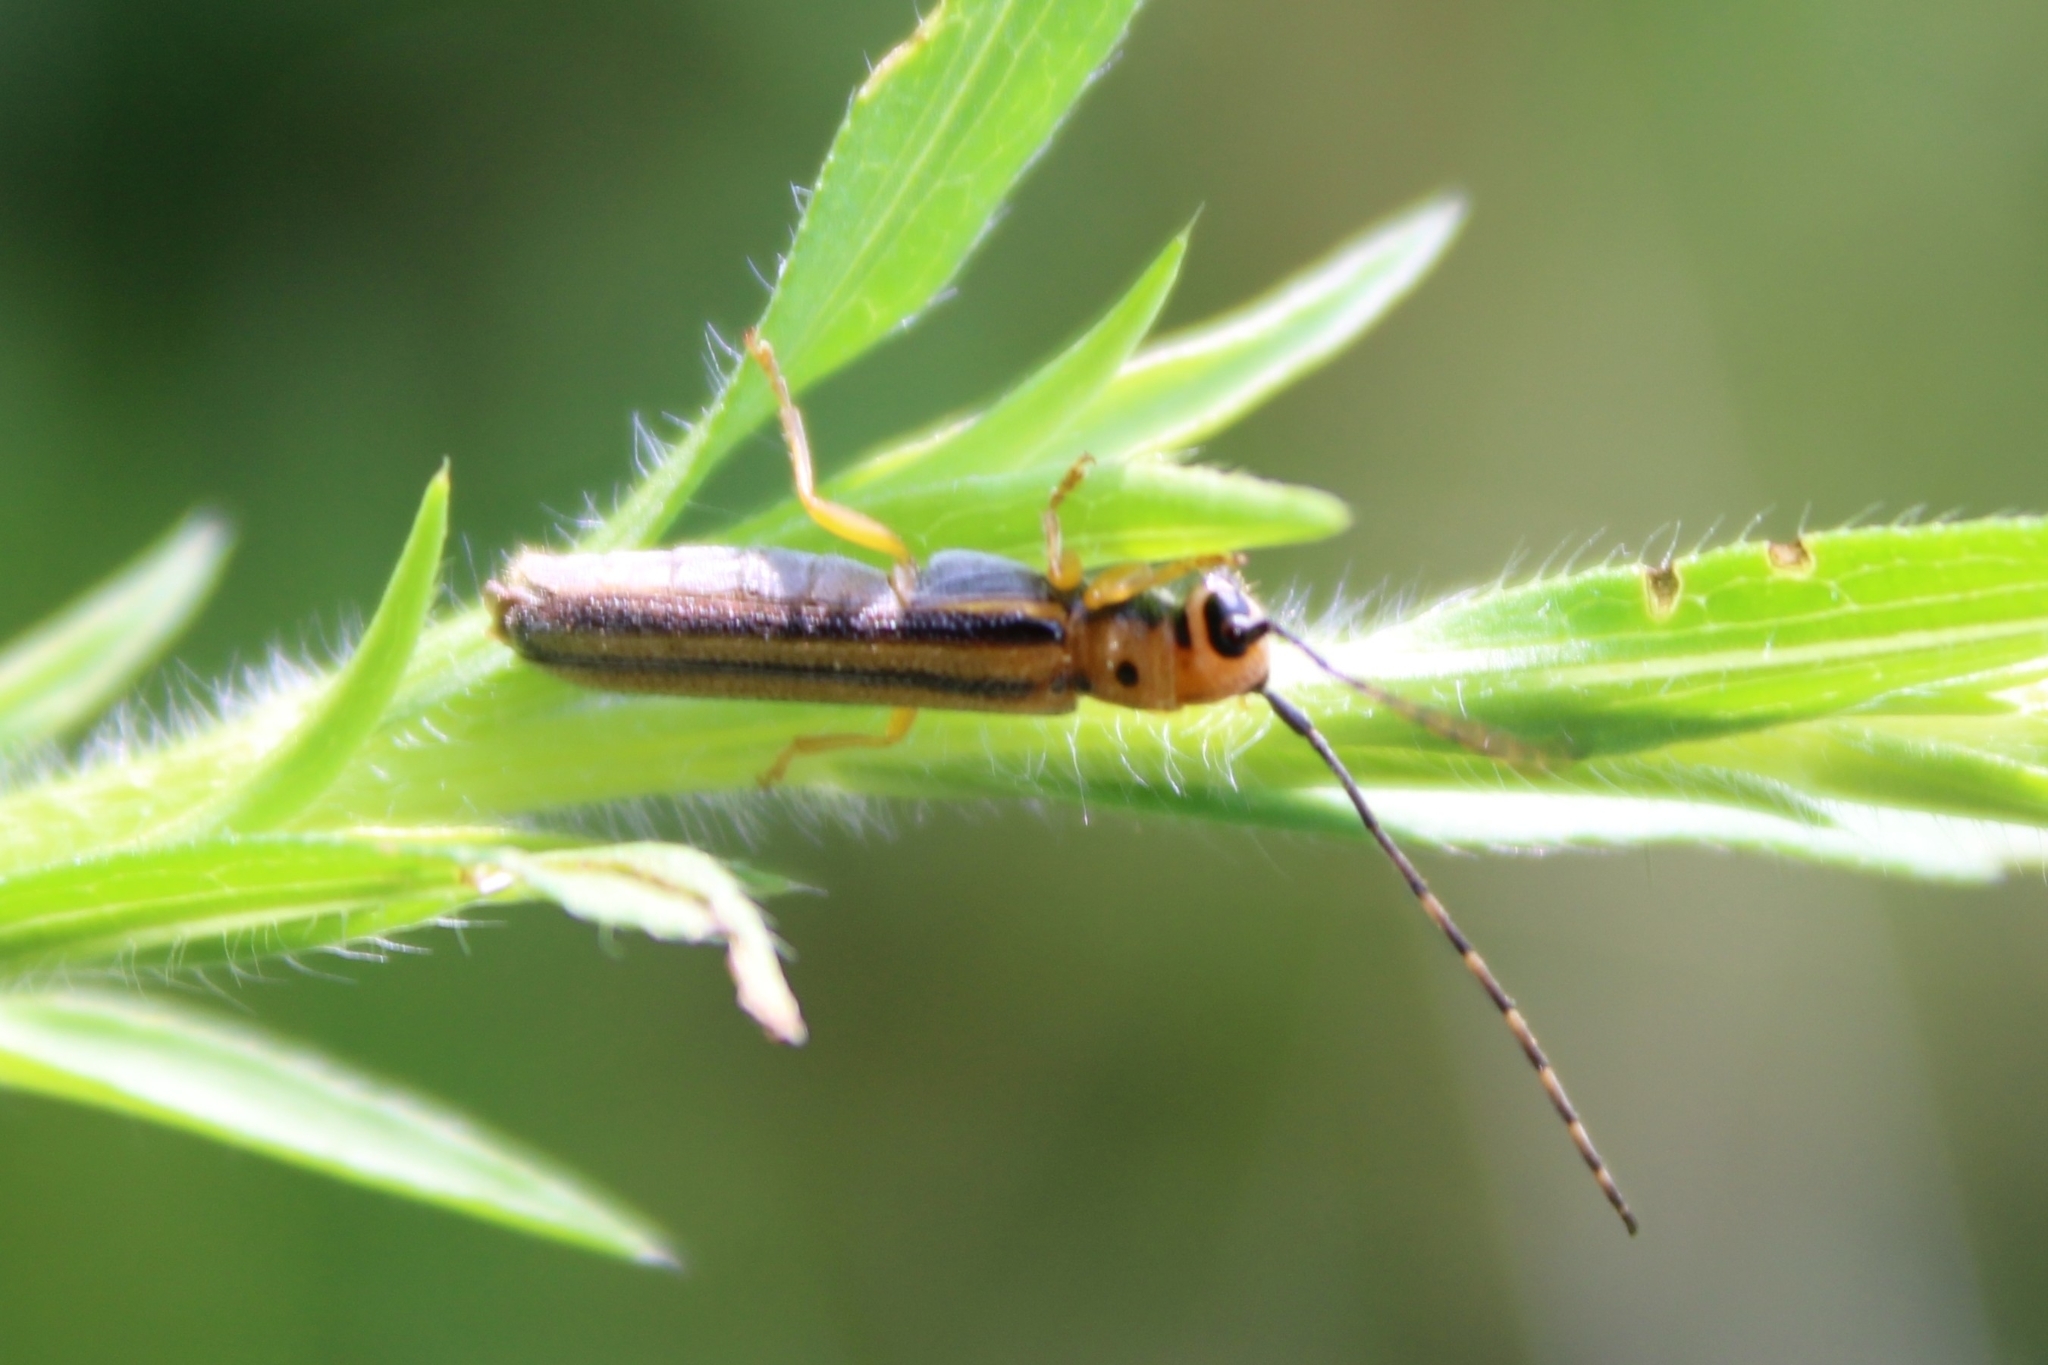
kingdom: Animalia
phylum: Arthropoda
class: Insecta
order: Coleoptera
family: Cerambycidae
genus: Oberea
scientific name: Oberea tripunctata
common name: Dogwood twig borer
